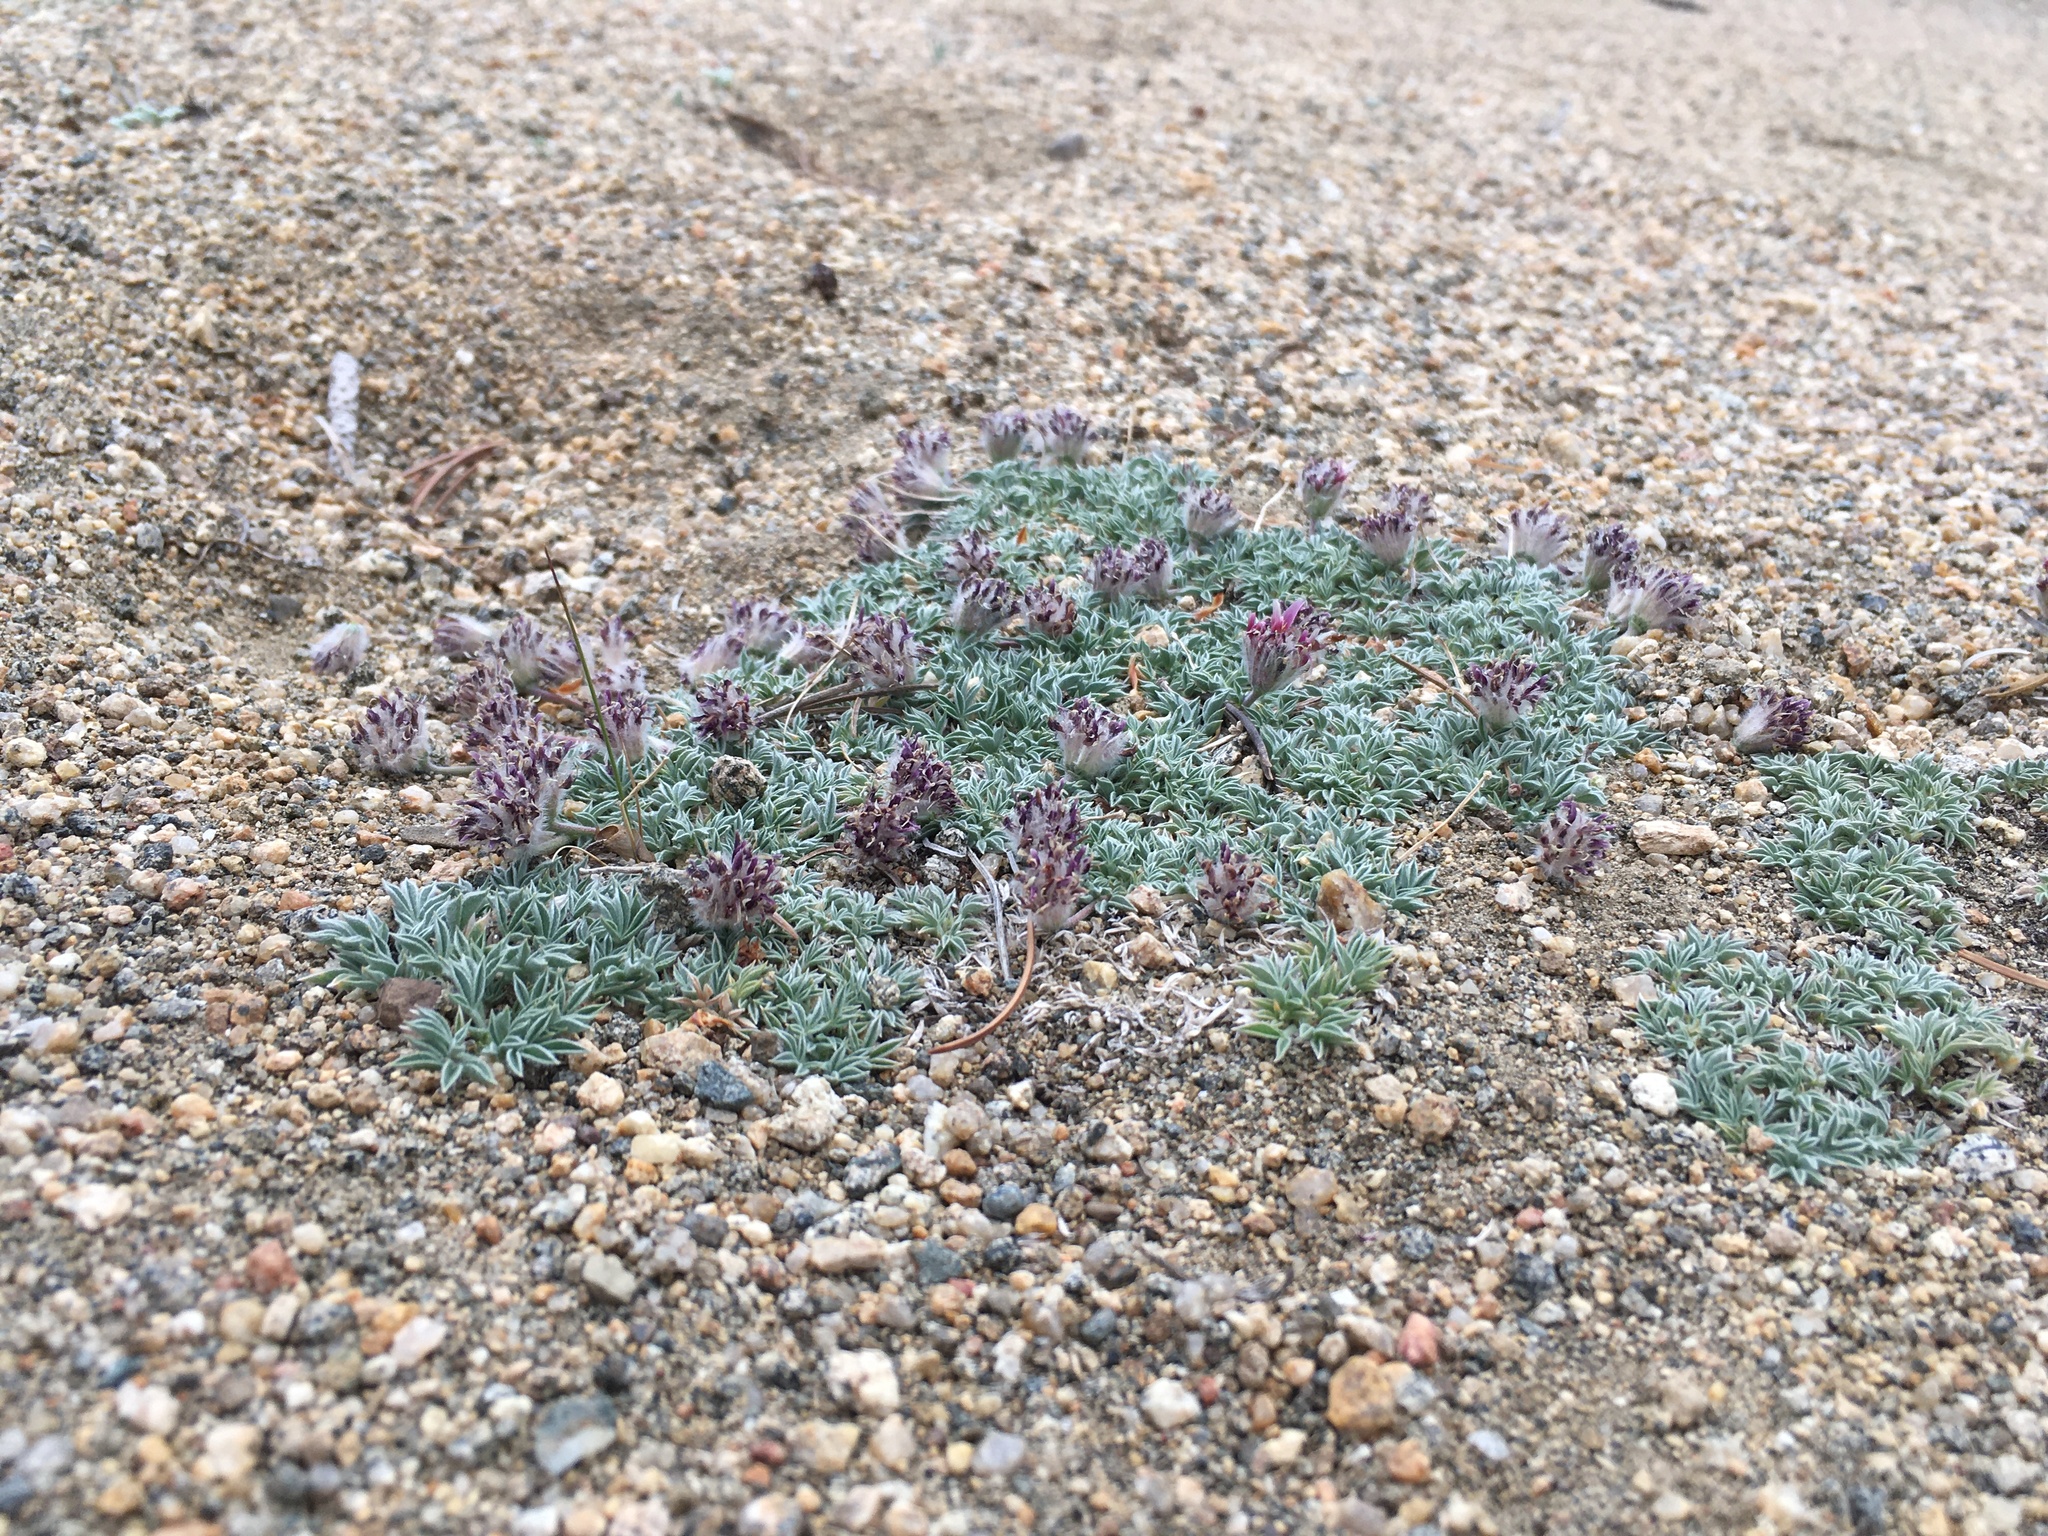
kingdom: Plantae
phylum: Tracheophyta
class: Magnoliopsida
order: Fabales
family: Fabaceae
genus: Trifolium
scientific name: Trifolium andersonii
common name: Anderson's clover
